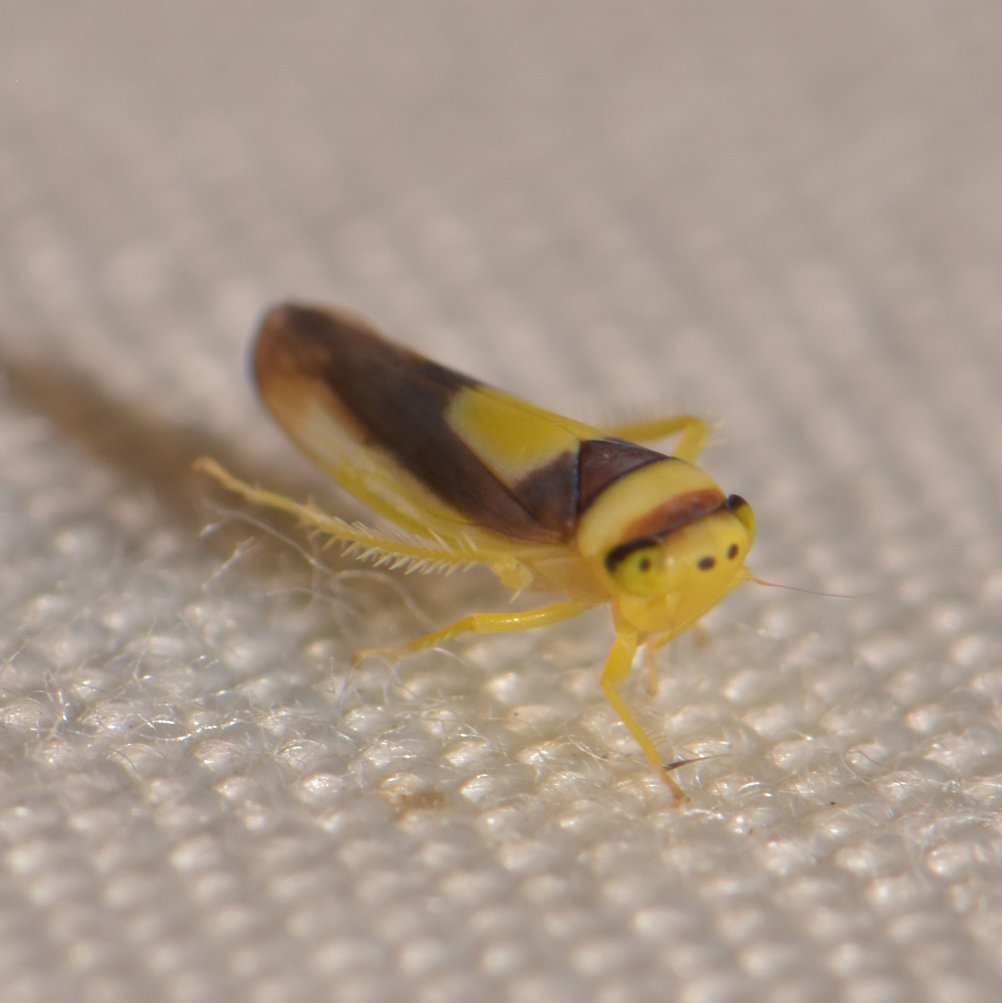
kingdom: Animalia
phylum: Arthropoda
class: Insecta
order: Hemiptera
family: Cicadellidae
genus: Colladonus
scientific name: Colladonus clitellarius
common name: The saddleback leafhopper
